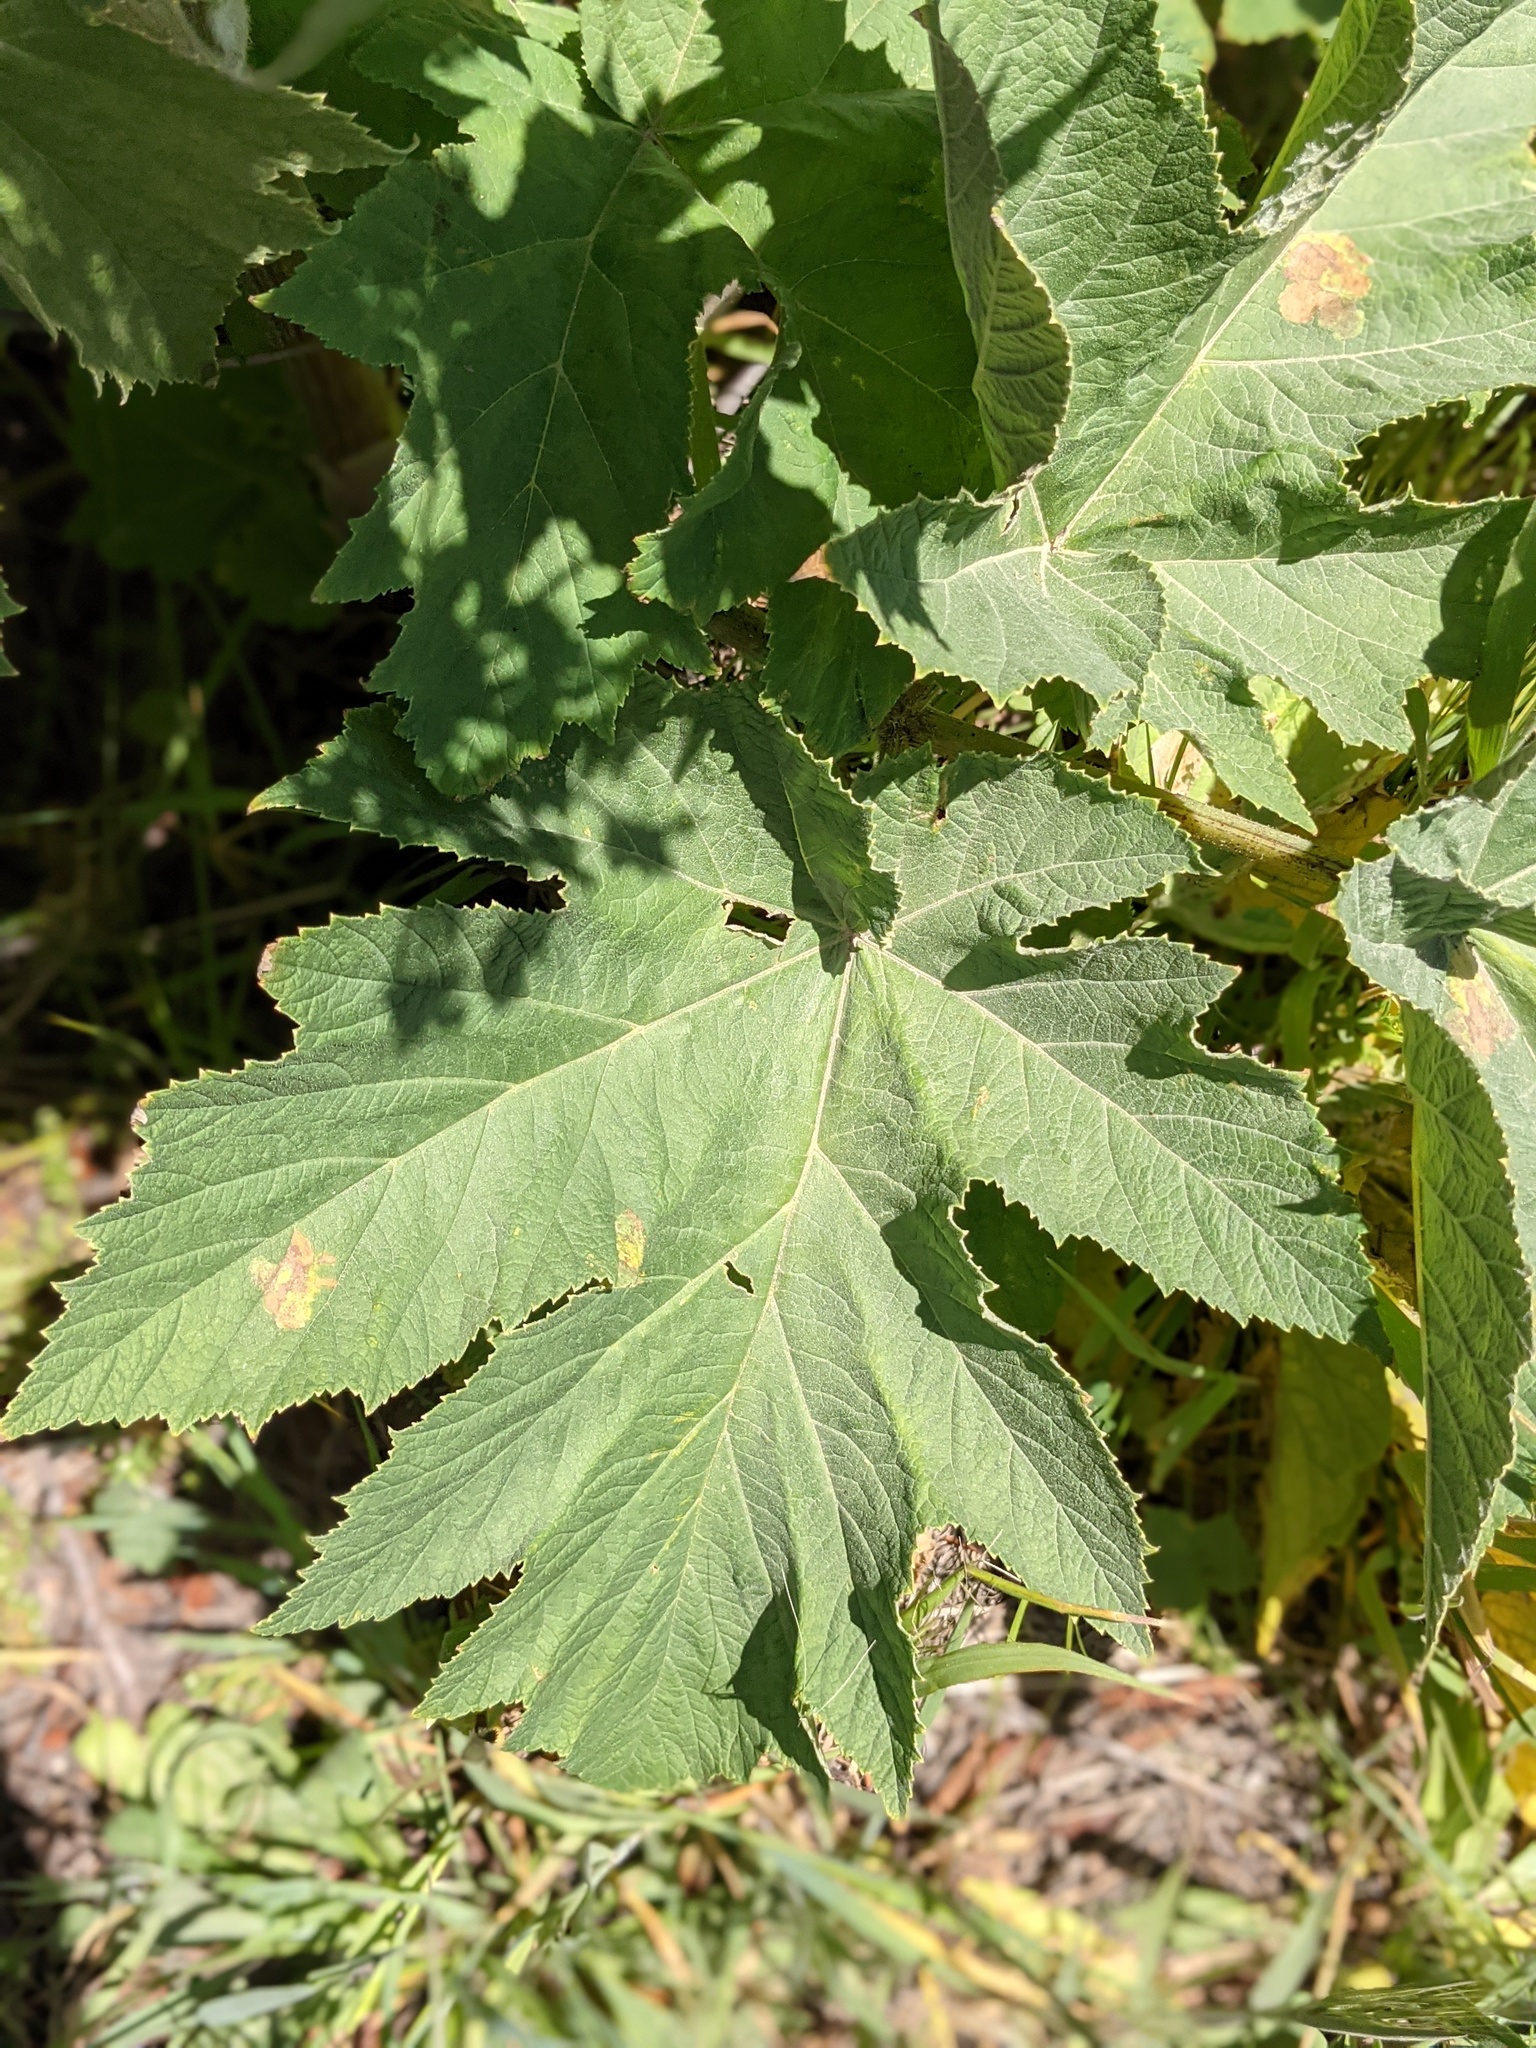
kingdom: Plantae
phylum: Tracheophyta
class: Magnoliopsida
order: Apiales
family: Apiaceae
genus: Heracleum
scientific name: Heracleum maximum
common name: American cow parsnip
